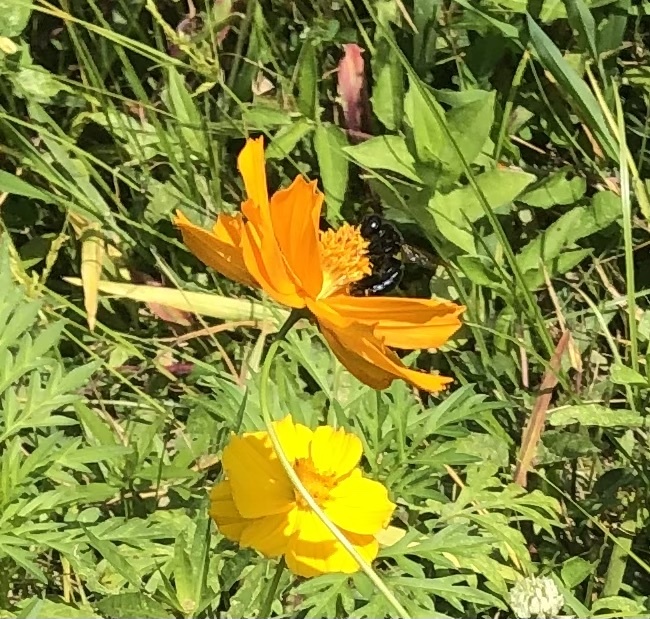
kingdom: Animalia
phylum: Arthropoda
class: Insecta
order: Hymenoptera
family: Apidae
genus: Xylocopa
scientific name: Xylocopa micans
